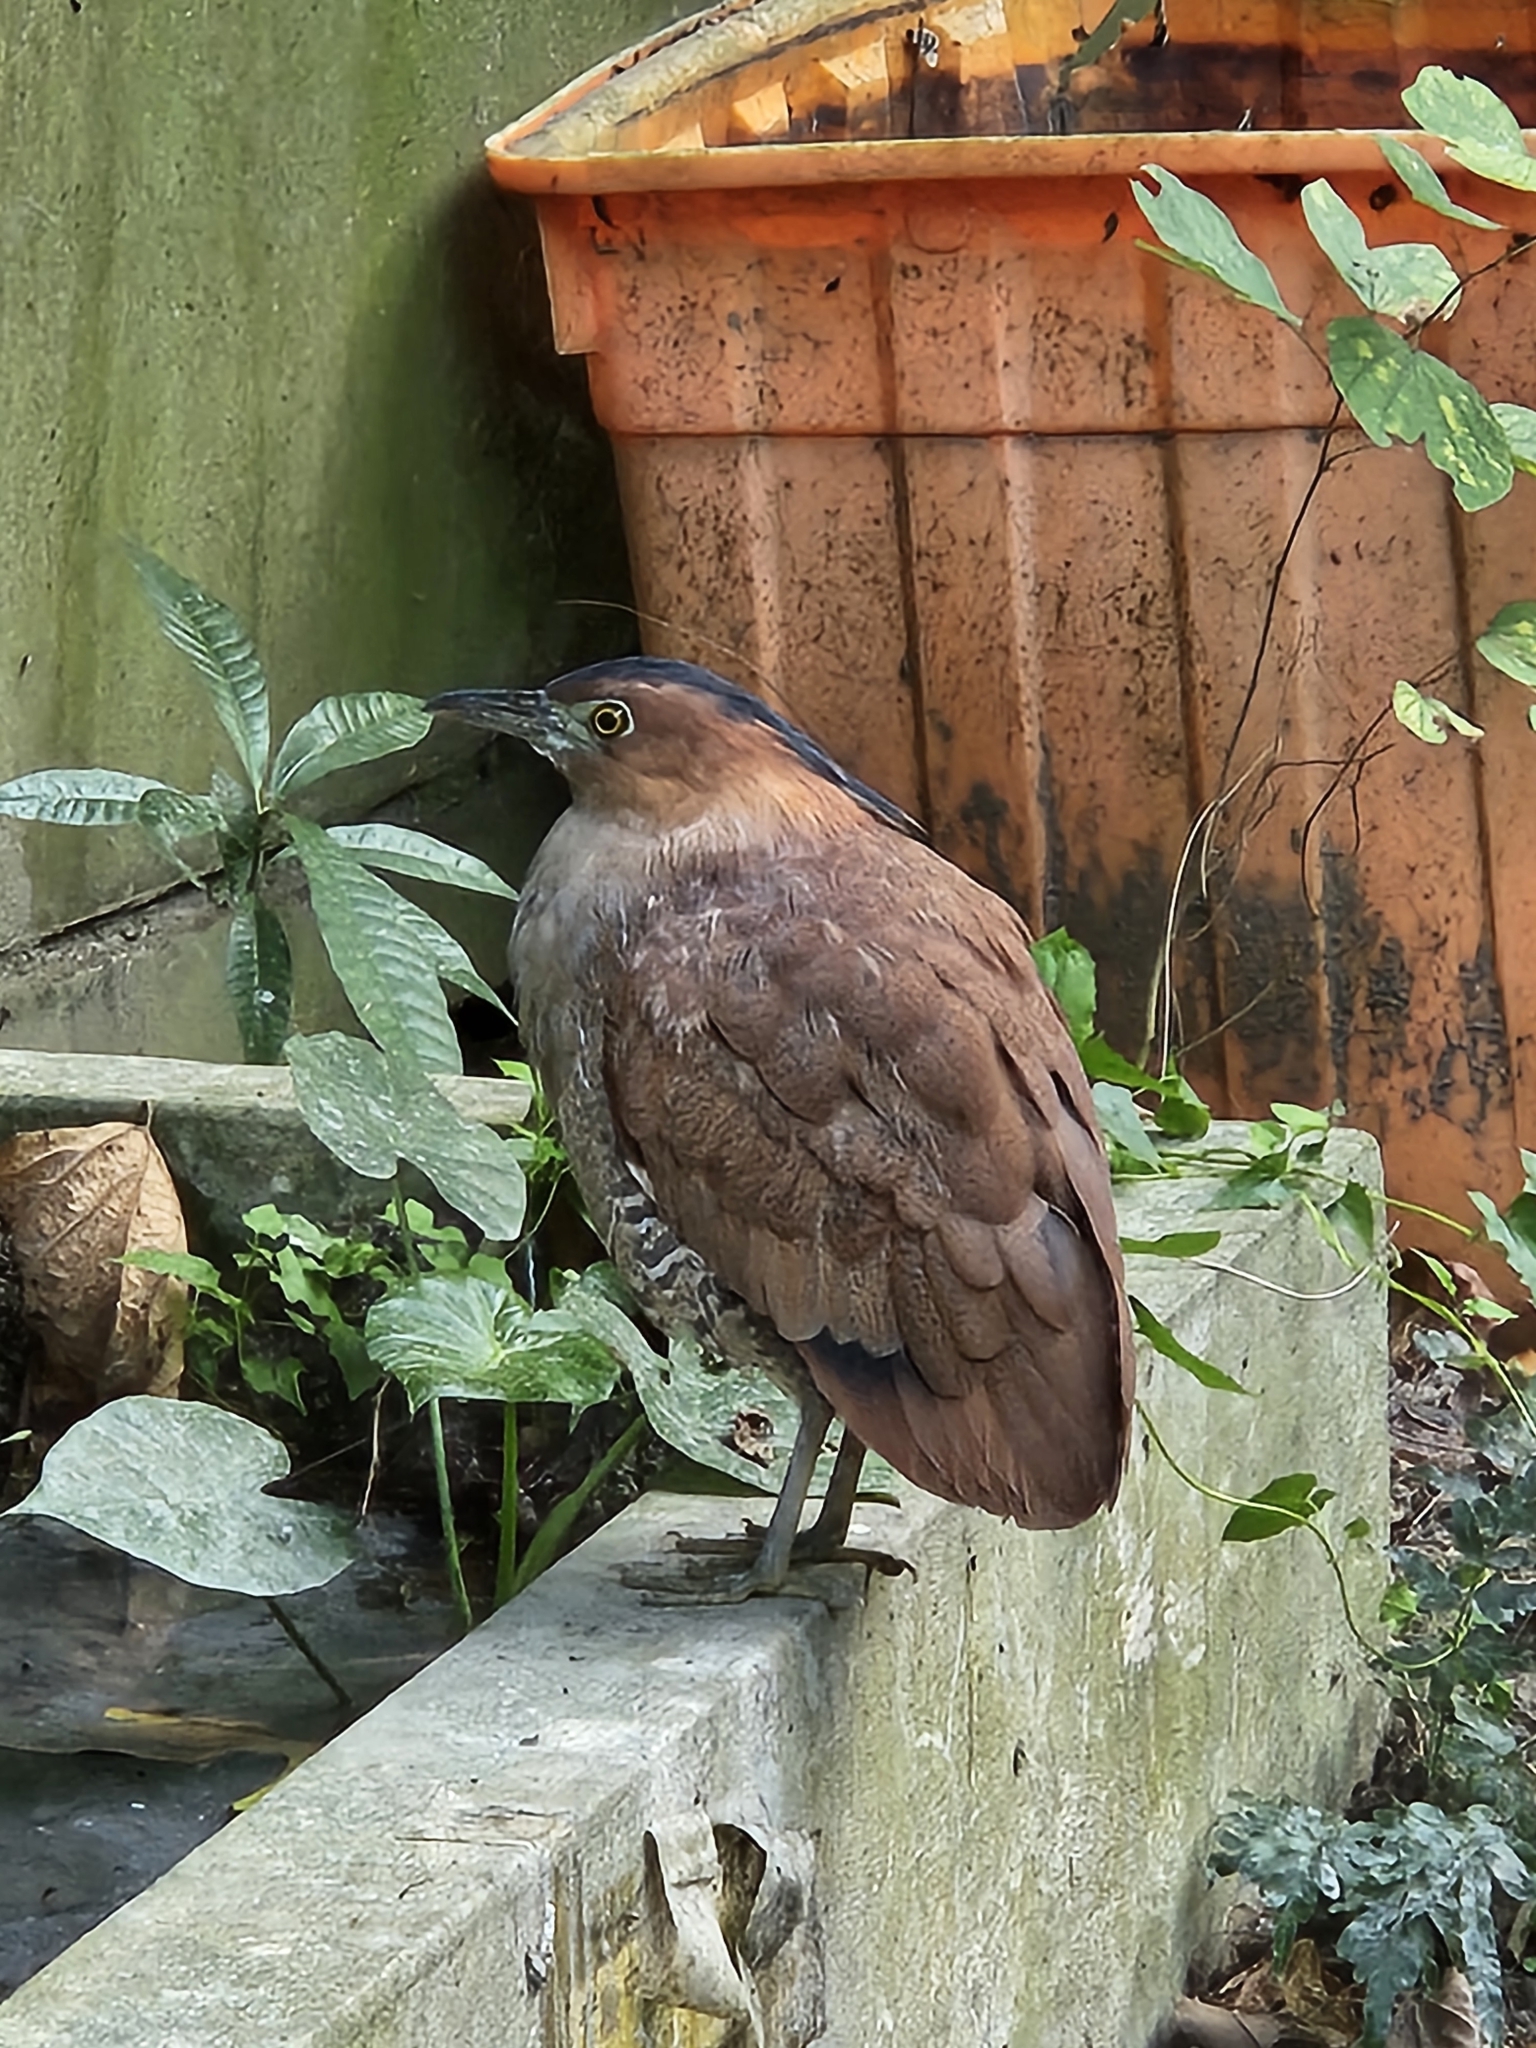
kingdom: Animalia
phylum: Chordata
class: Aves
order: Pelecaniformes
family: Ardeidae
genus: Gorsachius
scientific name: Gorsachius melanolophus
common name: Malayan night heron
